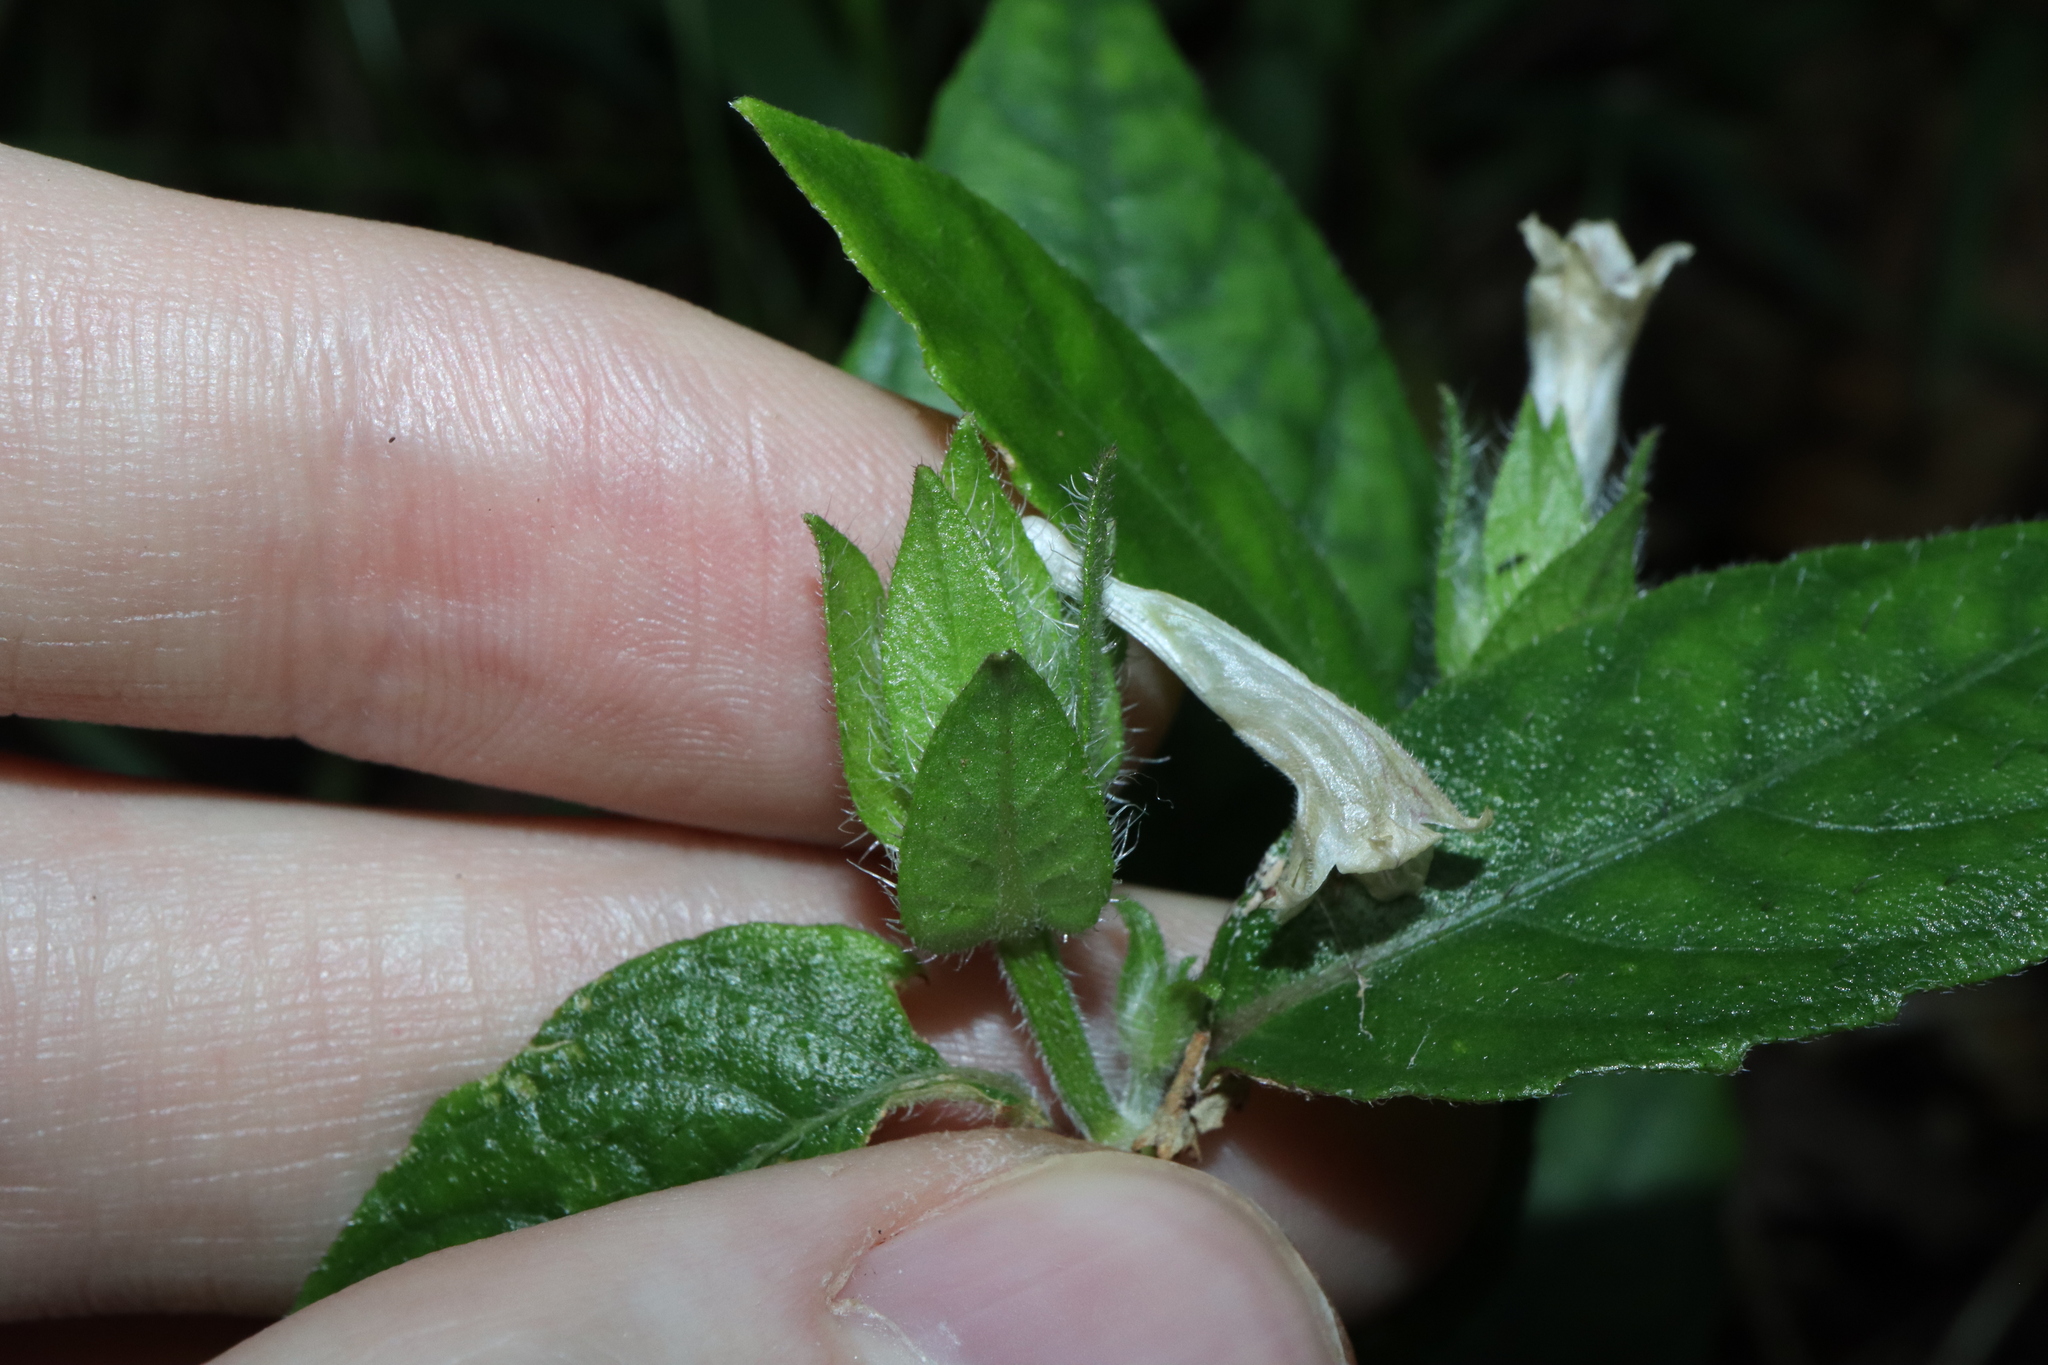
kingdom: Plantae
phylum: Tracheophyta
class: Magnoliopsida
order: Lamiales
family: Acanthaceae
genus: Strobilanthes
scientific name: Strobilanthes linearifolia
